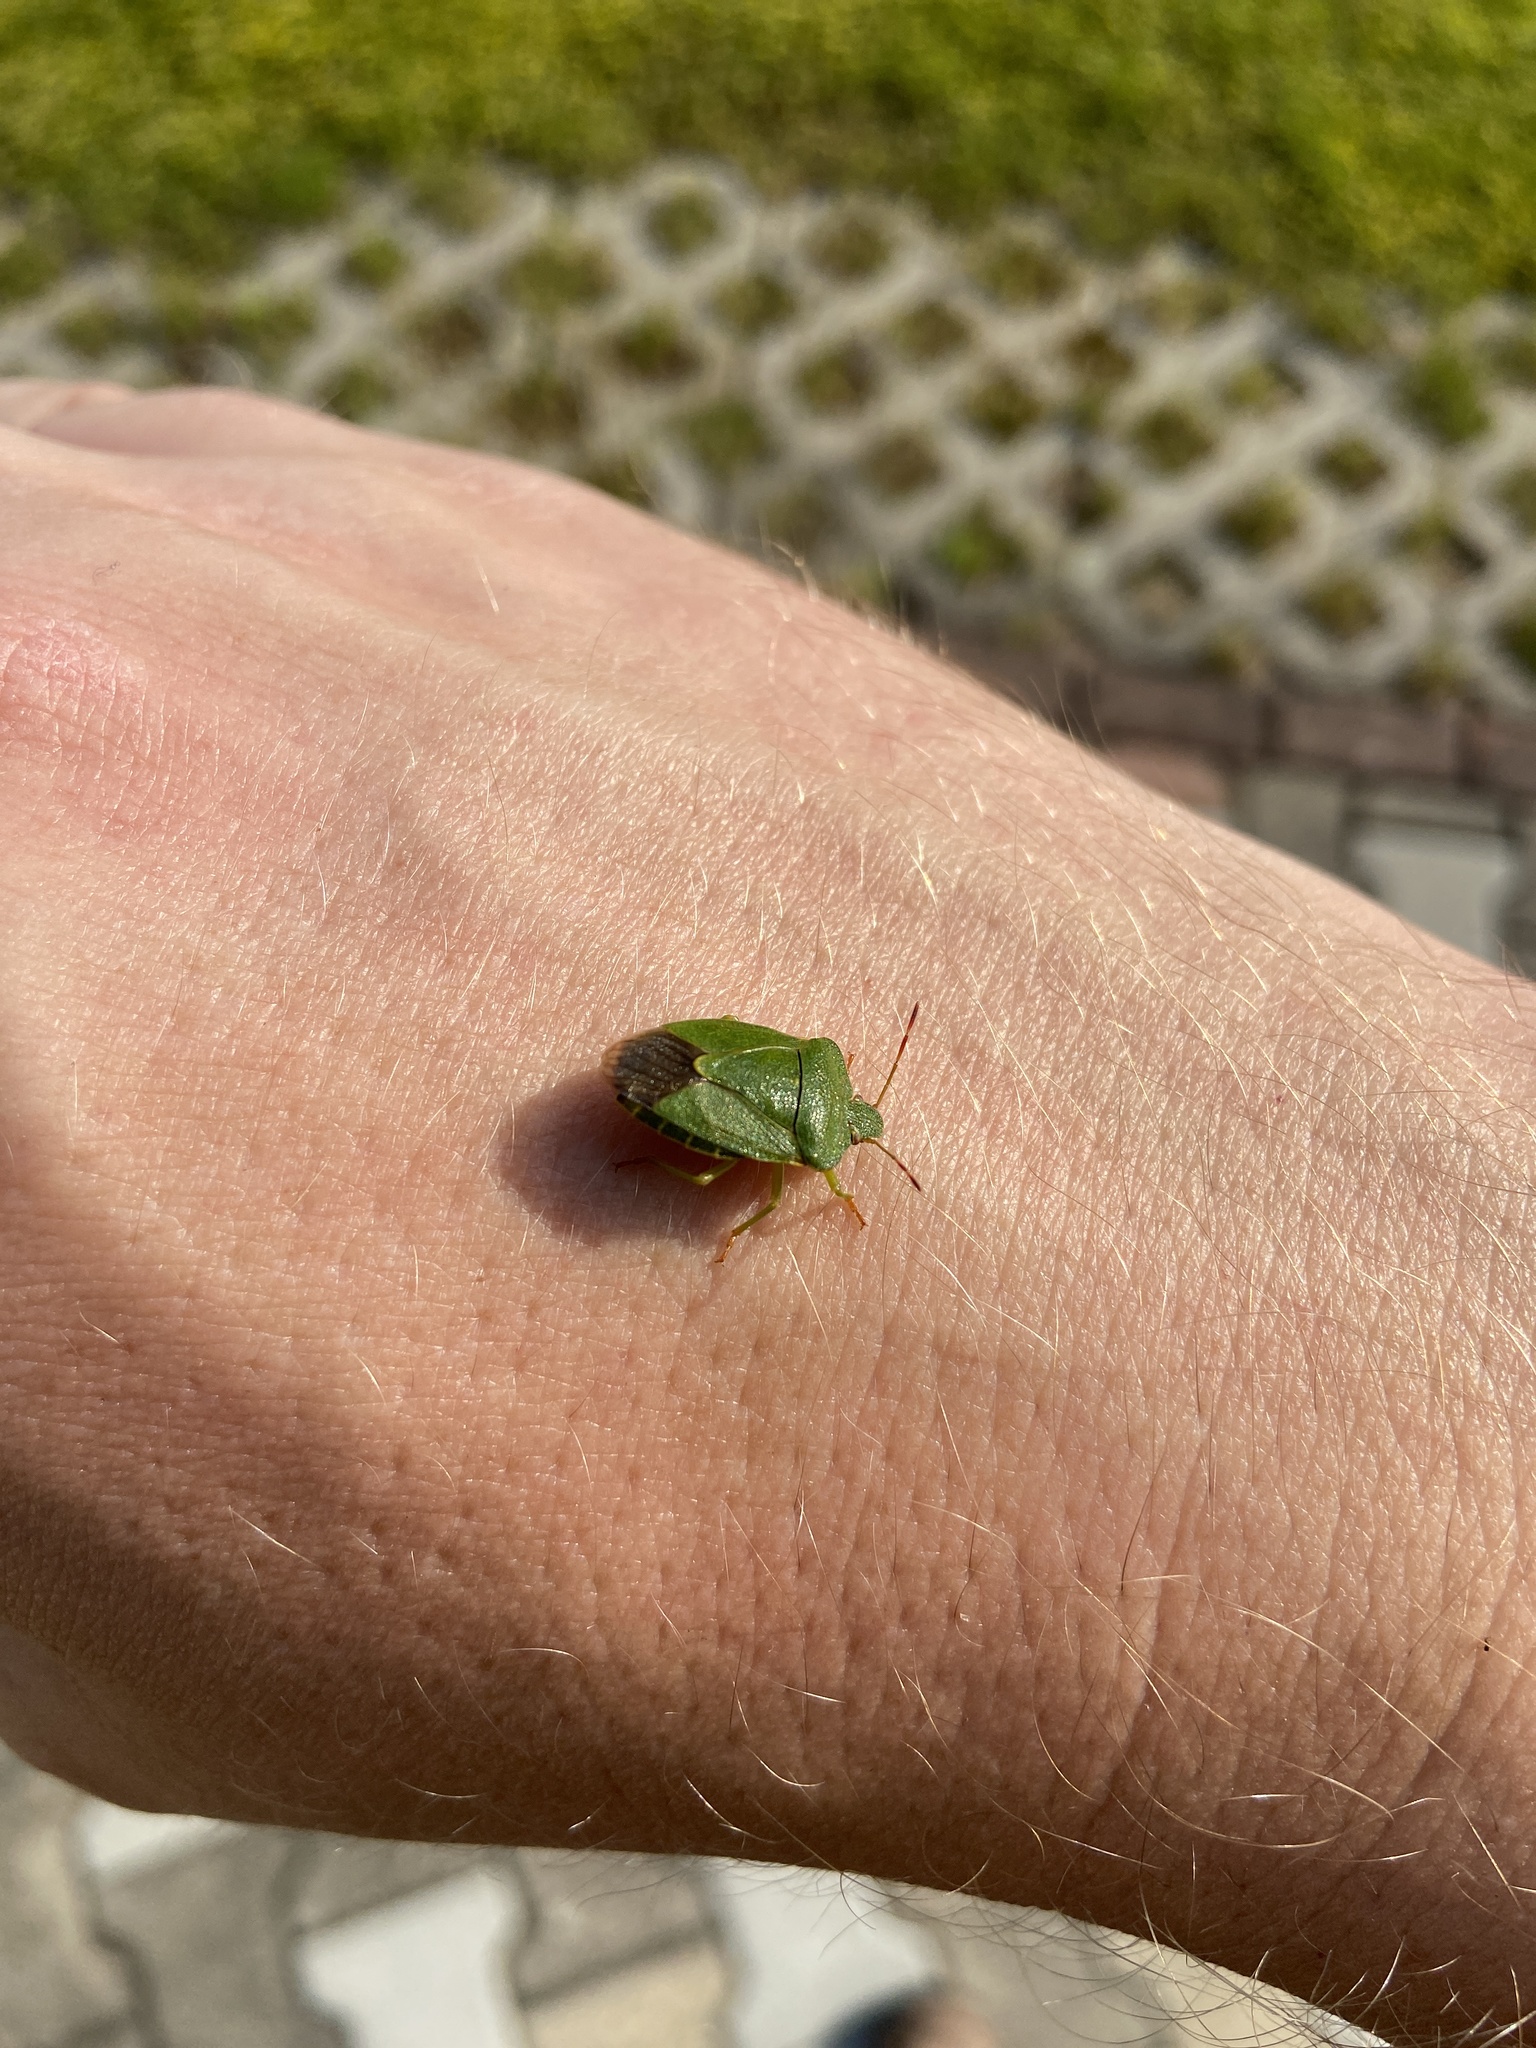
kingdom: Animalia
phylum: Arthropoda
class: Insecta
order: Hemiptera
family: Pentatomidae
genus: Palomena
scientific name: Palomena prasina
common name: Green shieldbug
